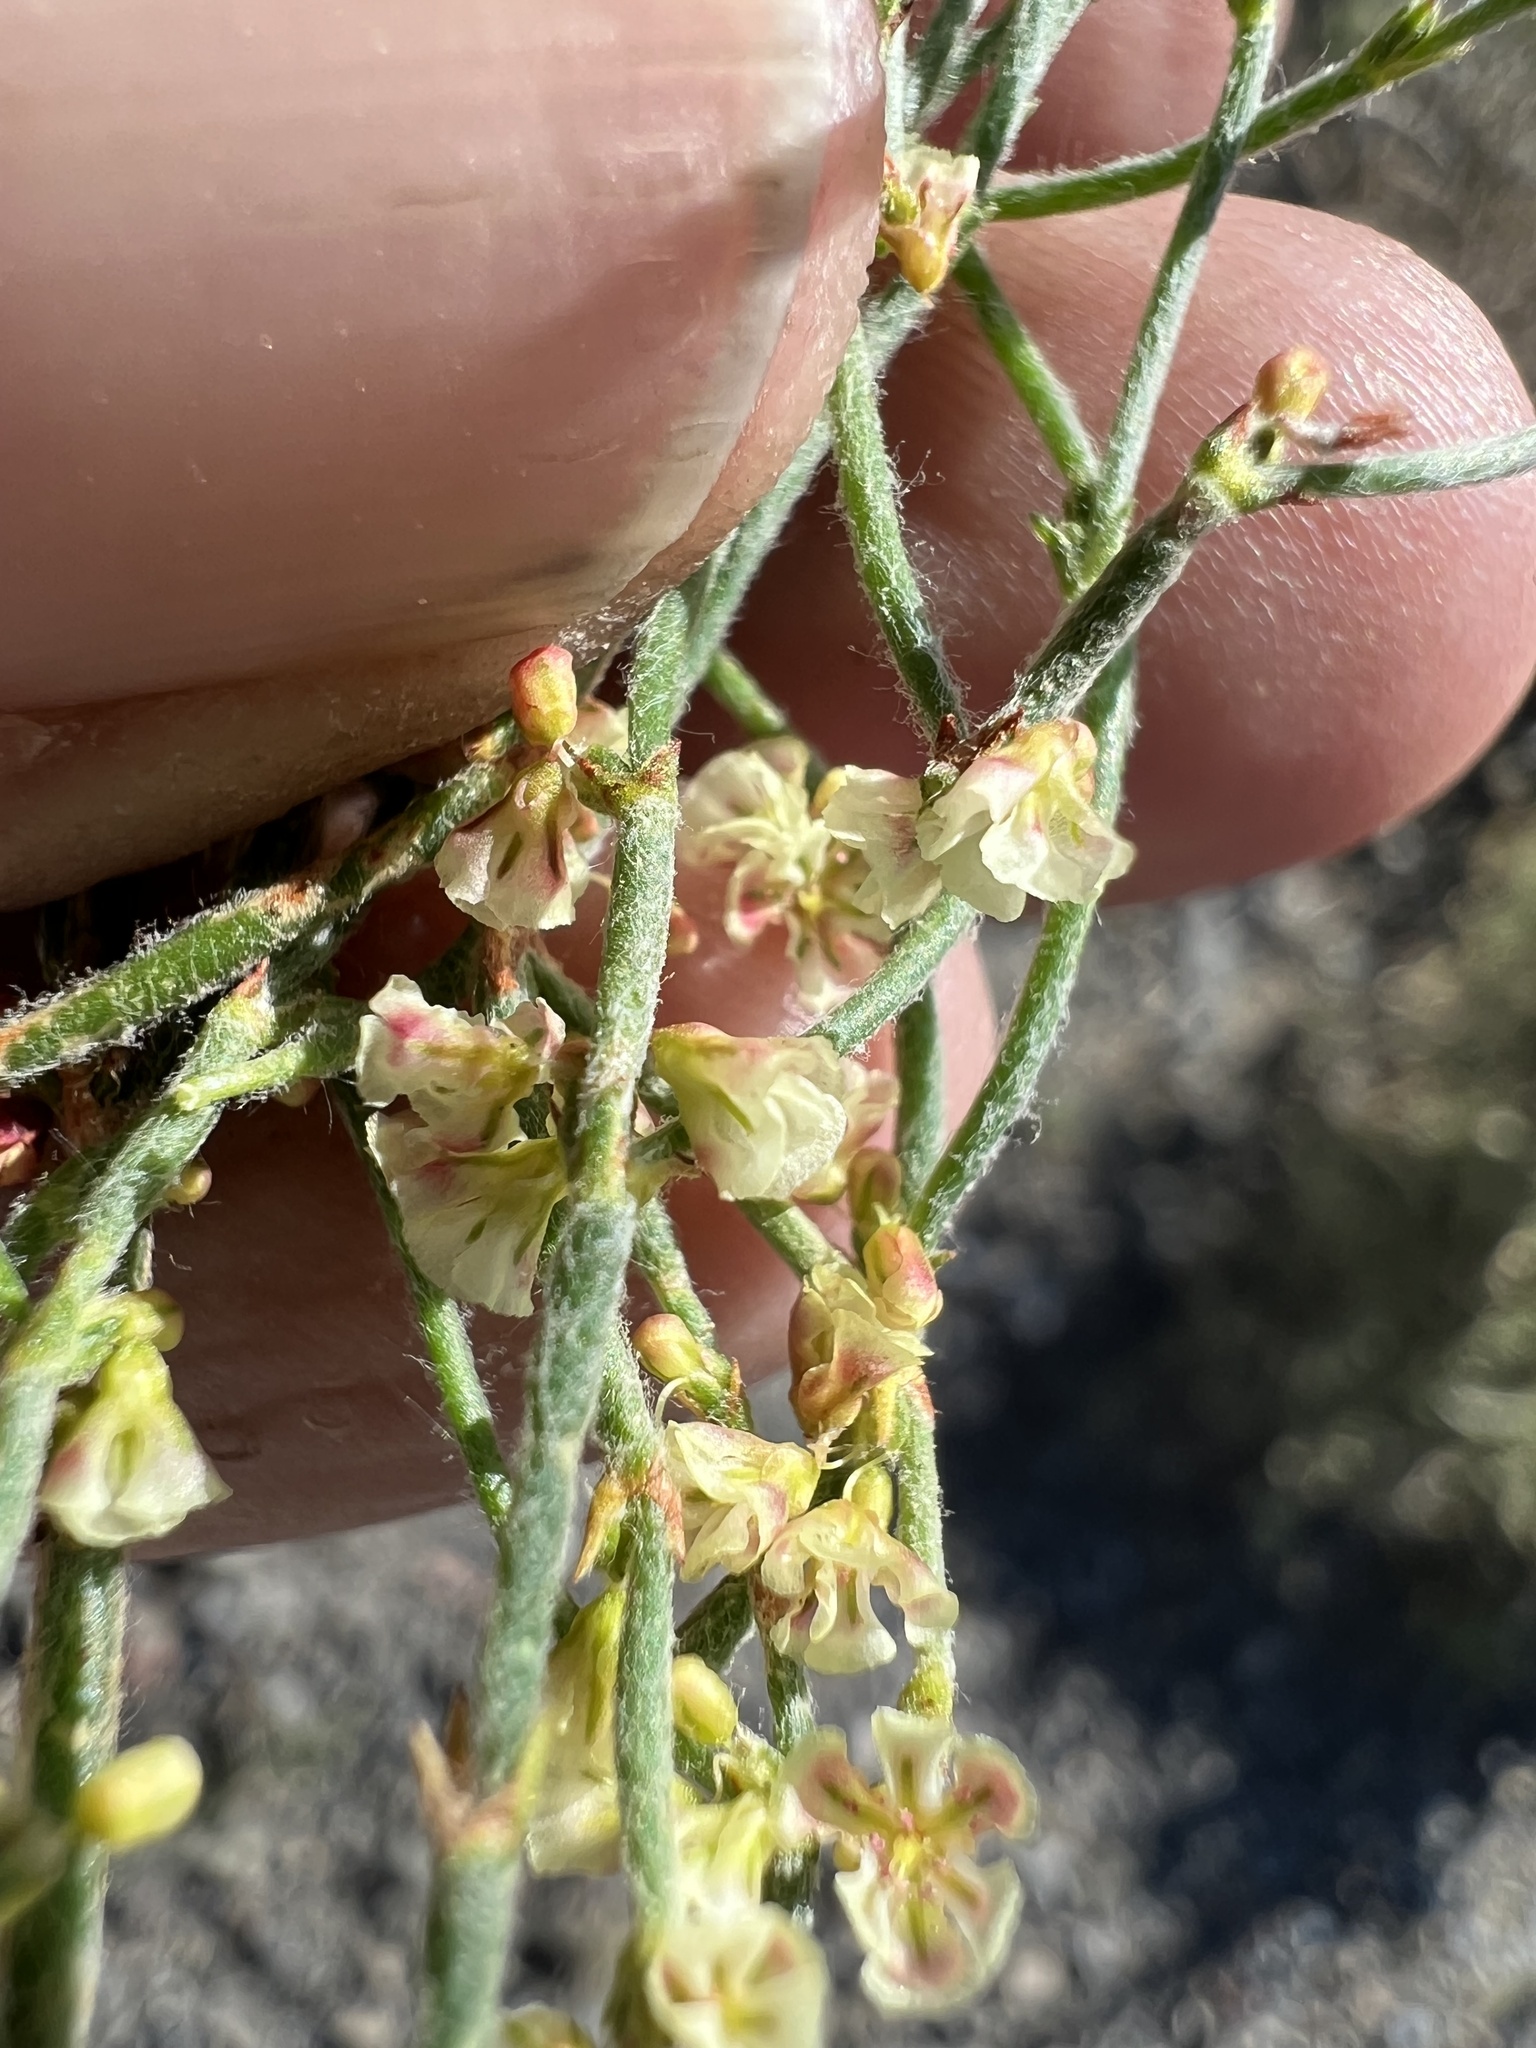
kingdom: Plantae
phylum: Tracheophyta
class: Magnoliopsida
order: Caryophyllales
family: Polygonaceae
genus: Eriogonum
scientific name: Eriogonum nidularium
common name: Bird's-nest wild buckwheat
